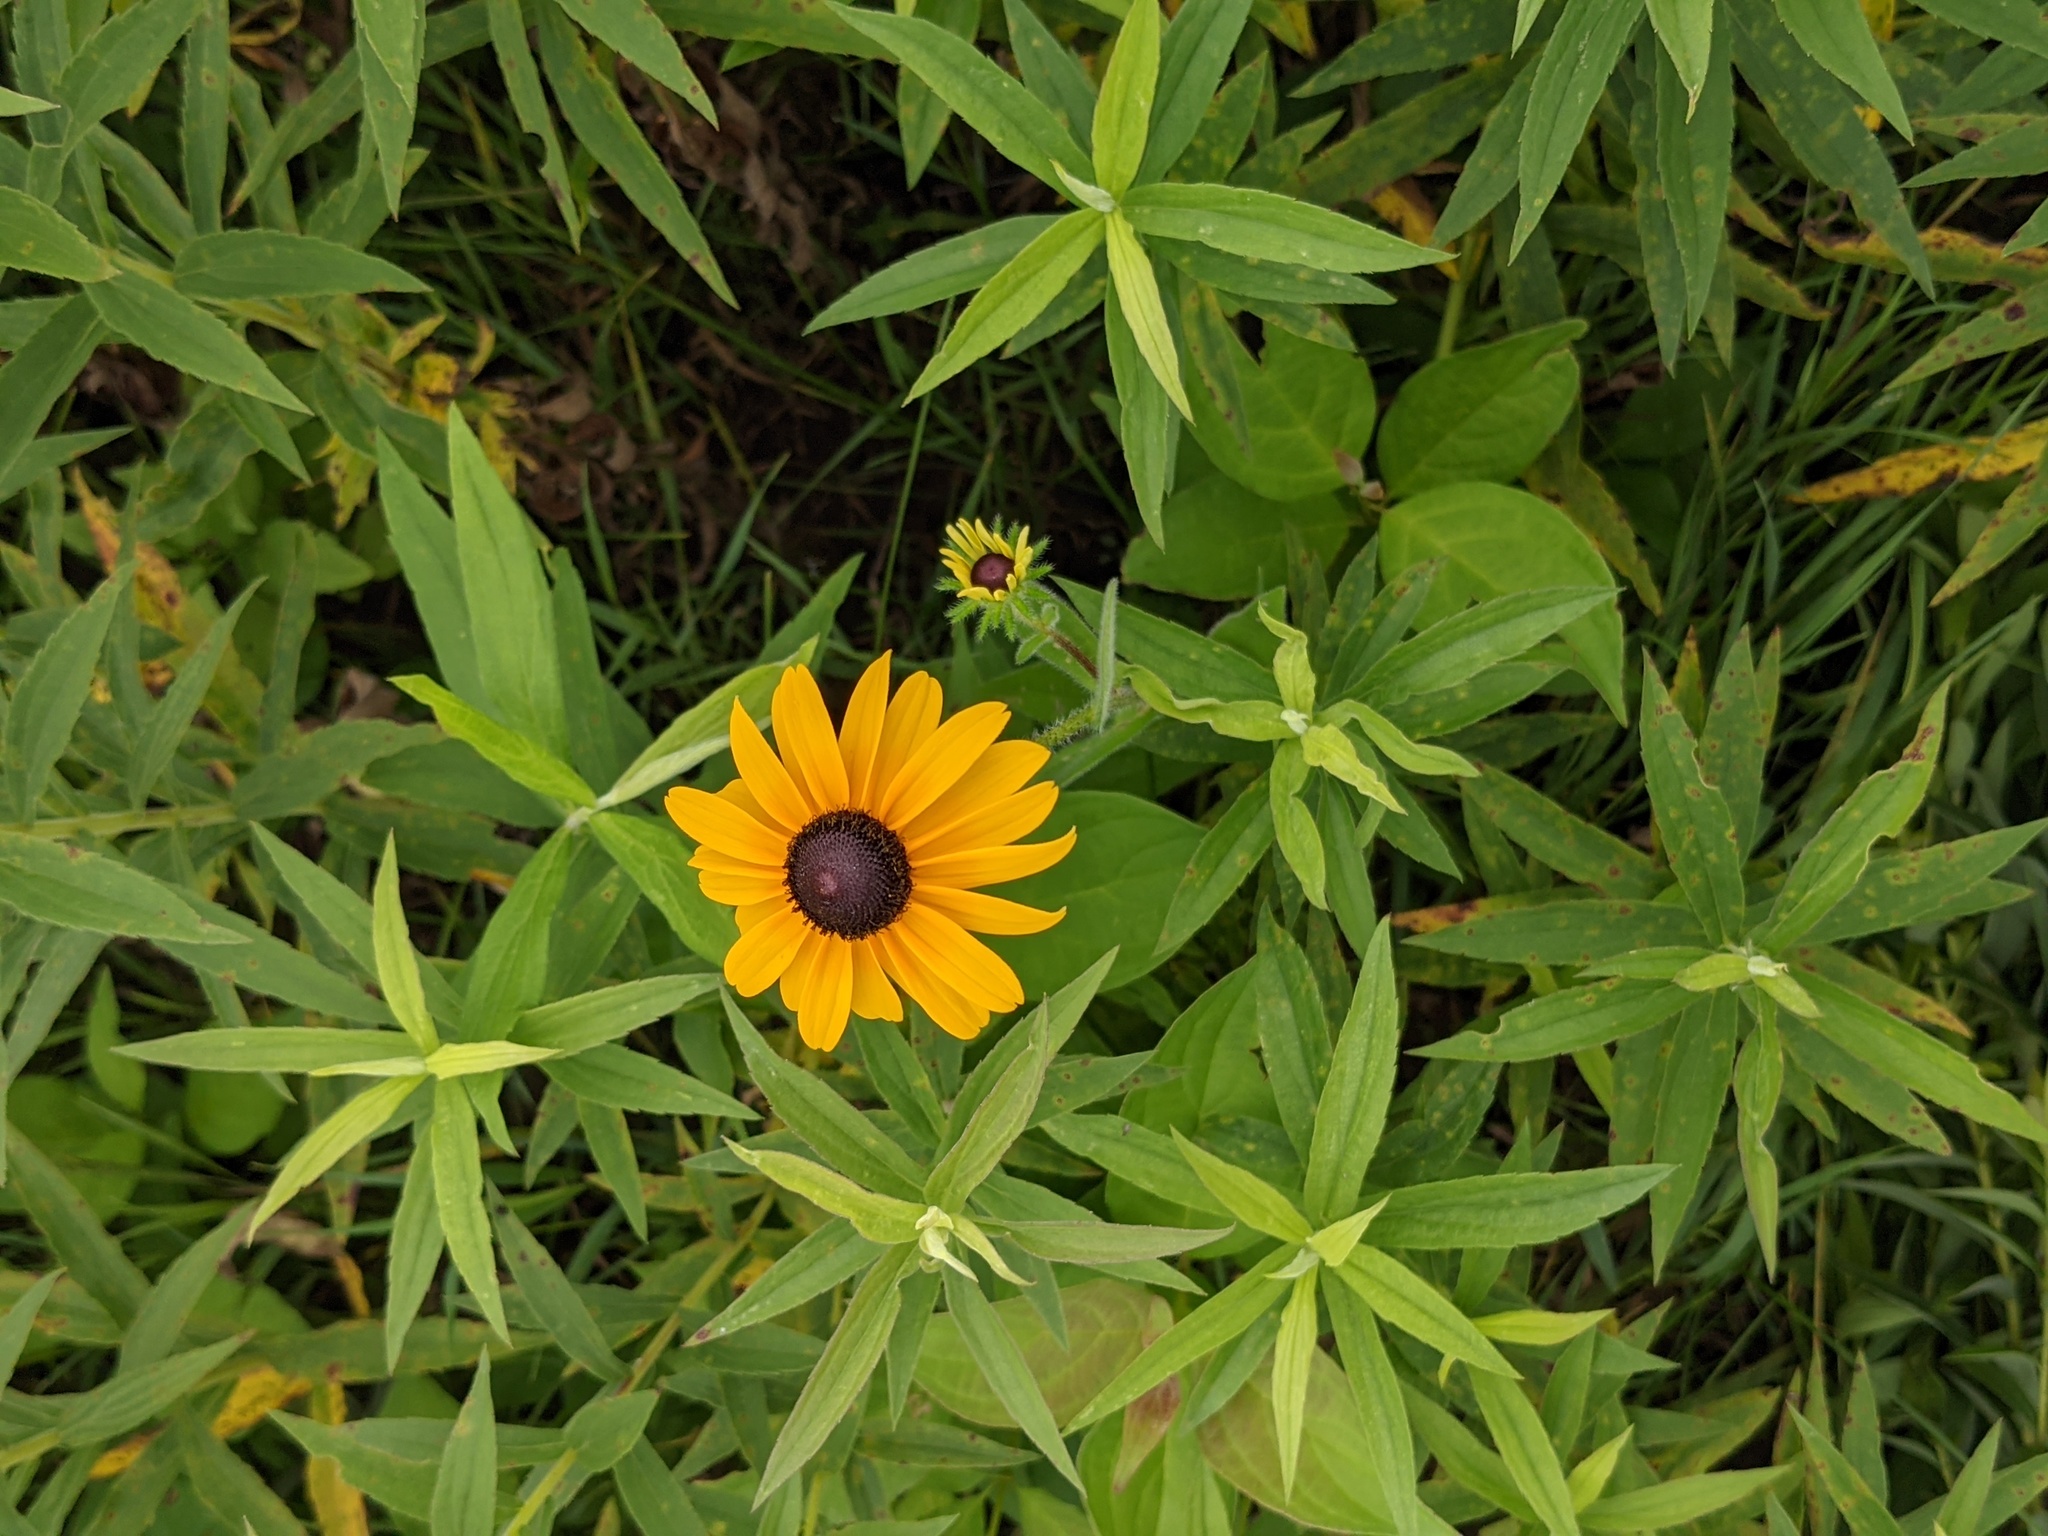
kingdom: Plantae
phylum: Tracheophyta
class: Magnoliopsida
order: Asterales
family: Asteraceae
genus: Rudbeckia
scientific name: Rudbeckia hirta
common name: Black-eyed-susan
